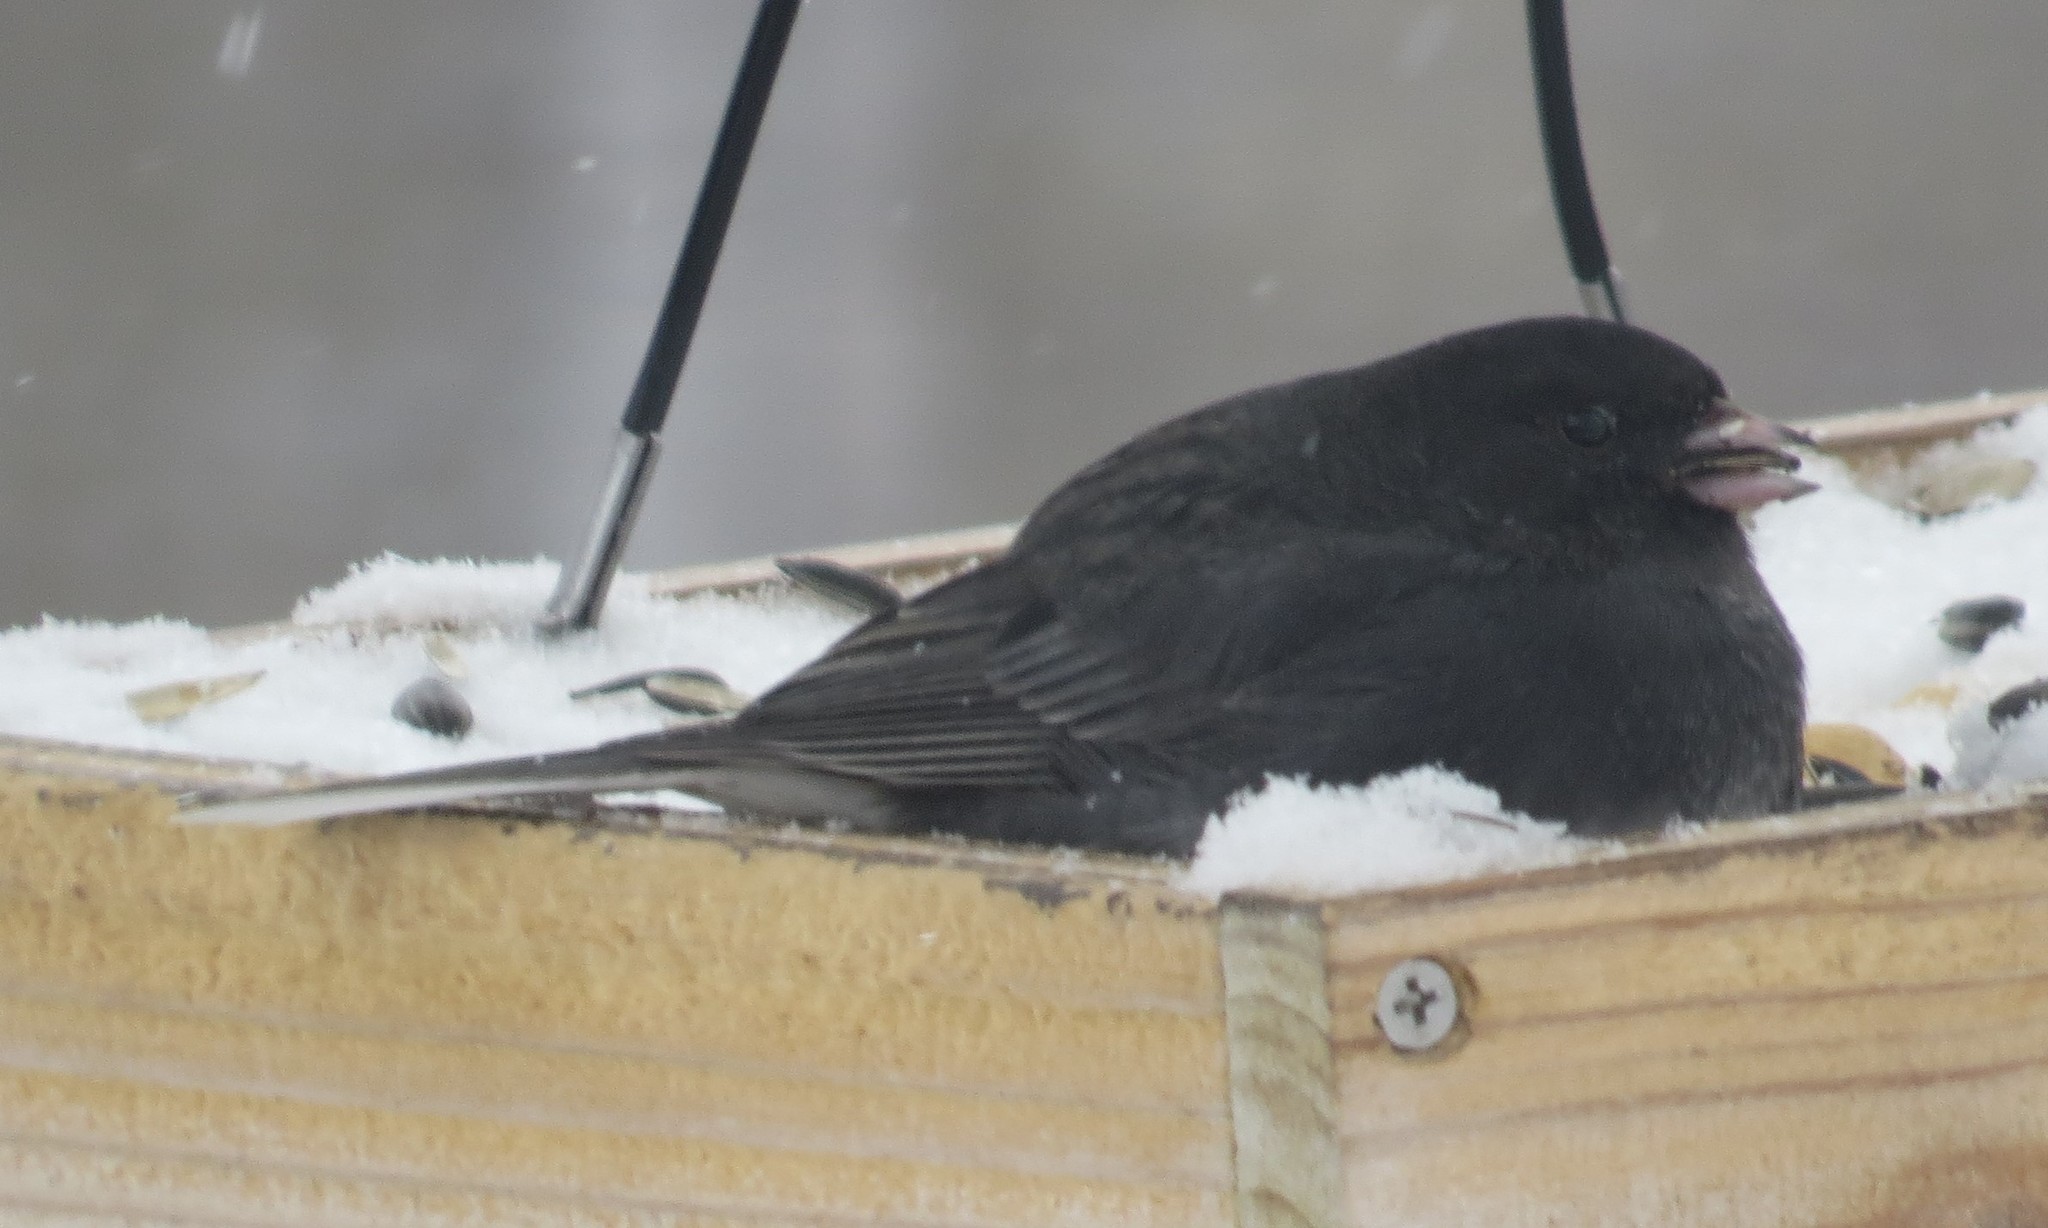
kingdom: Animalia
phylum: Chordata
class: Aves
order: Passeriformes
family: Passerellidae
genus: Junco
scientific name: Junco hyemalis
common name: Dark-eyed junco
